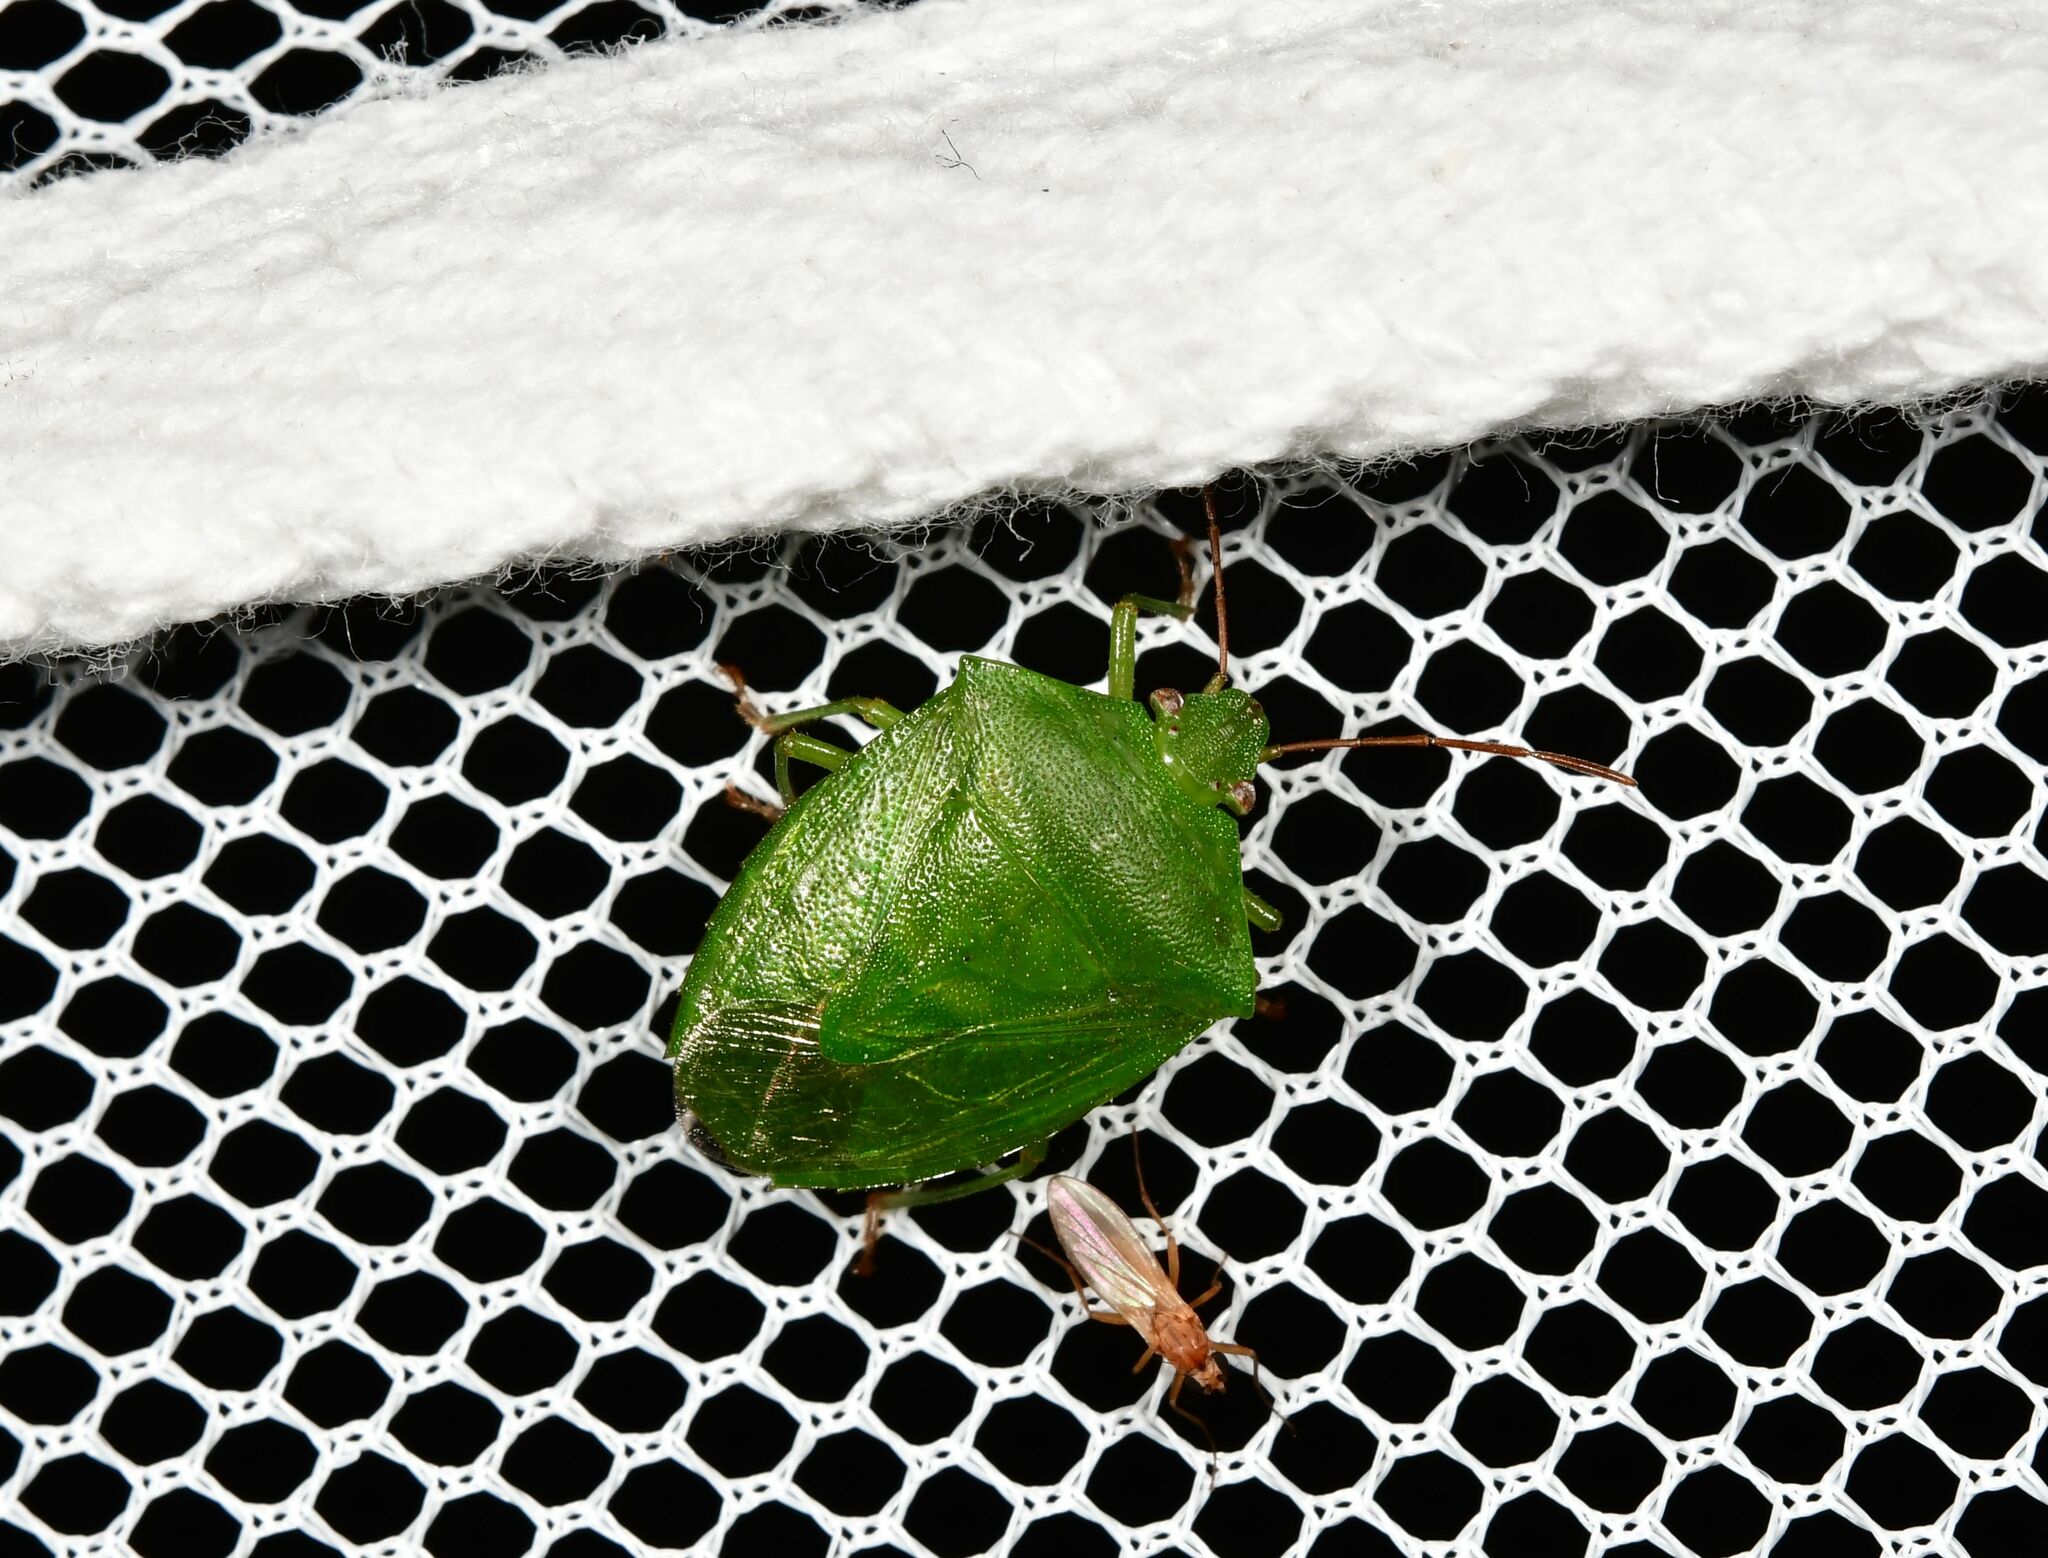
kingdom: Animalia
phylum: Arthropoda
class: Insecta
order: Hemiptera
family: Pentatomidae
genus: Cuspicona
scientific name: Cuspicona simplex
